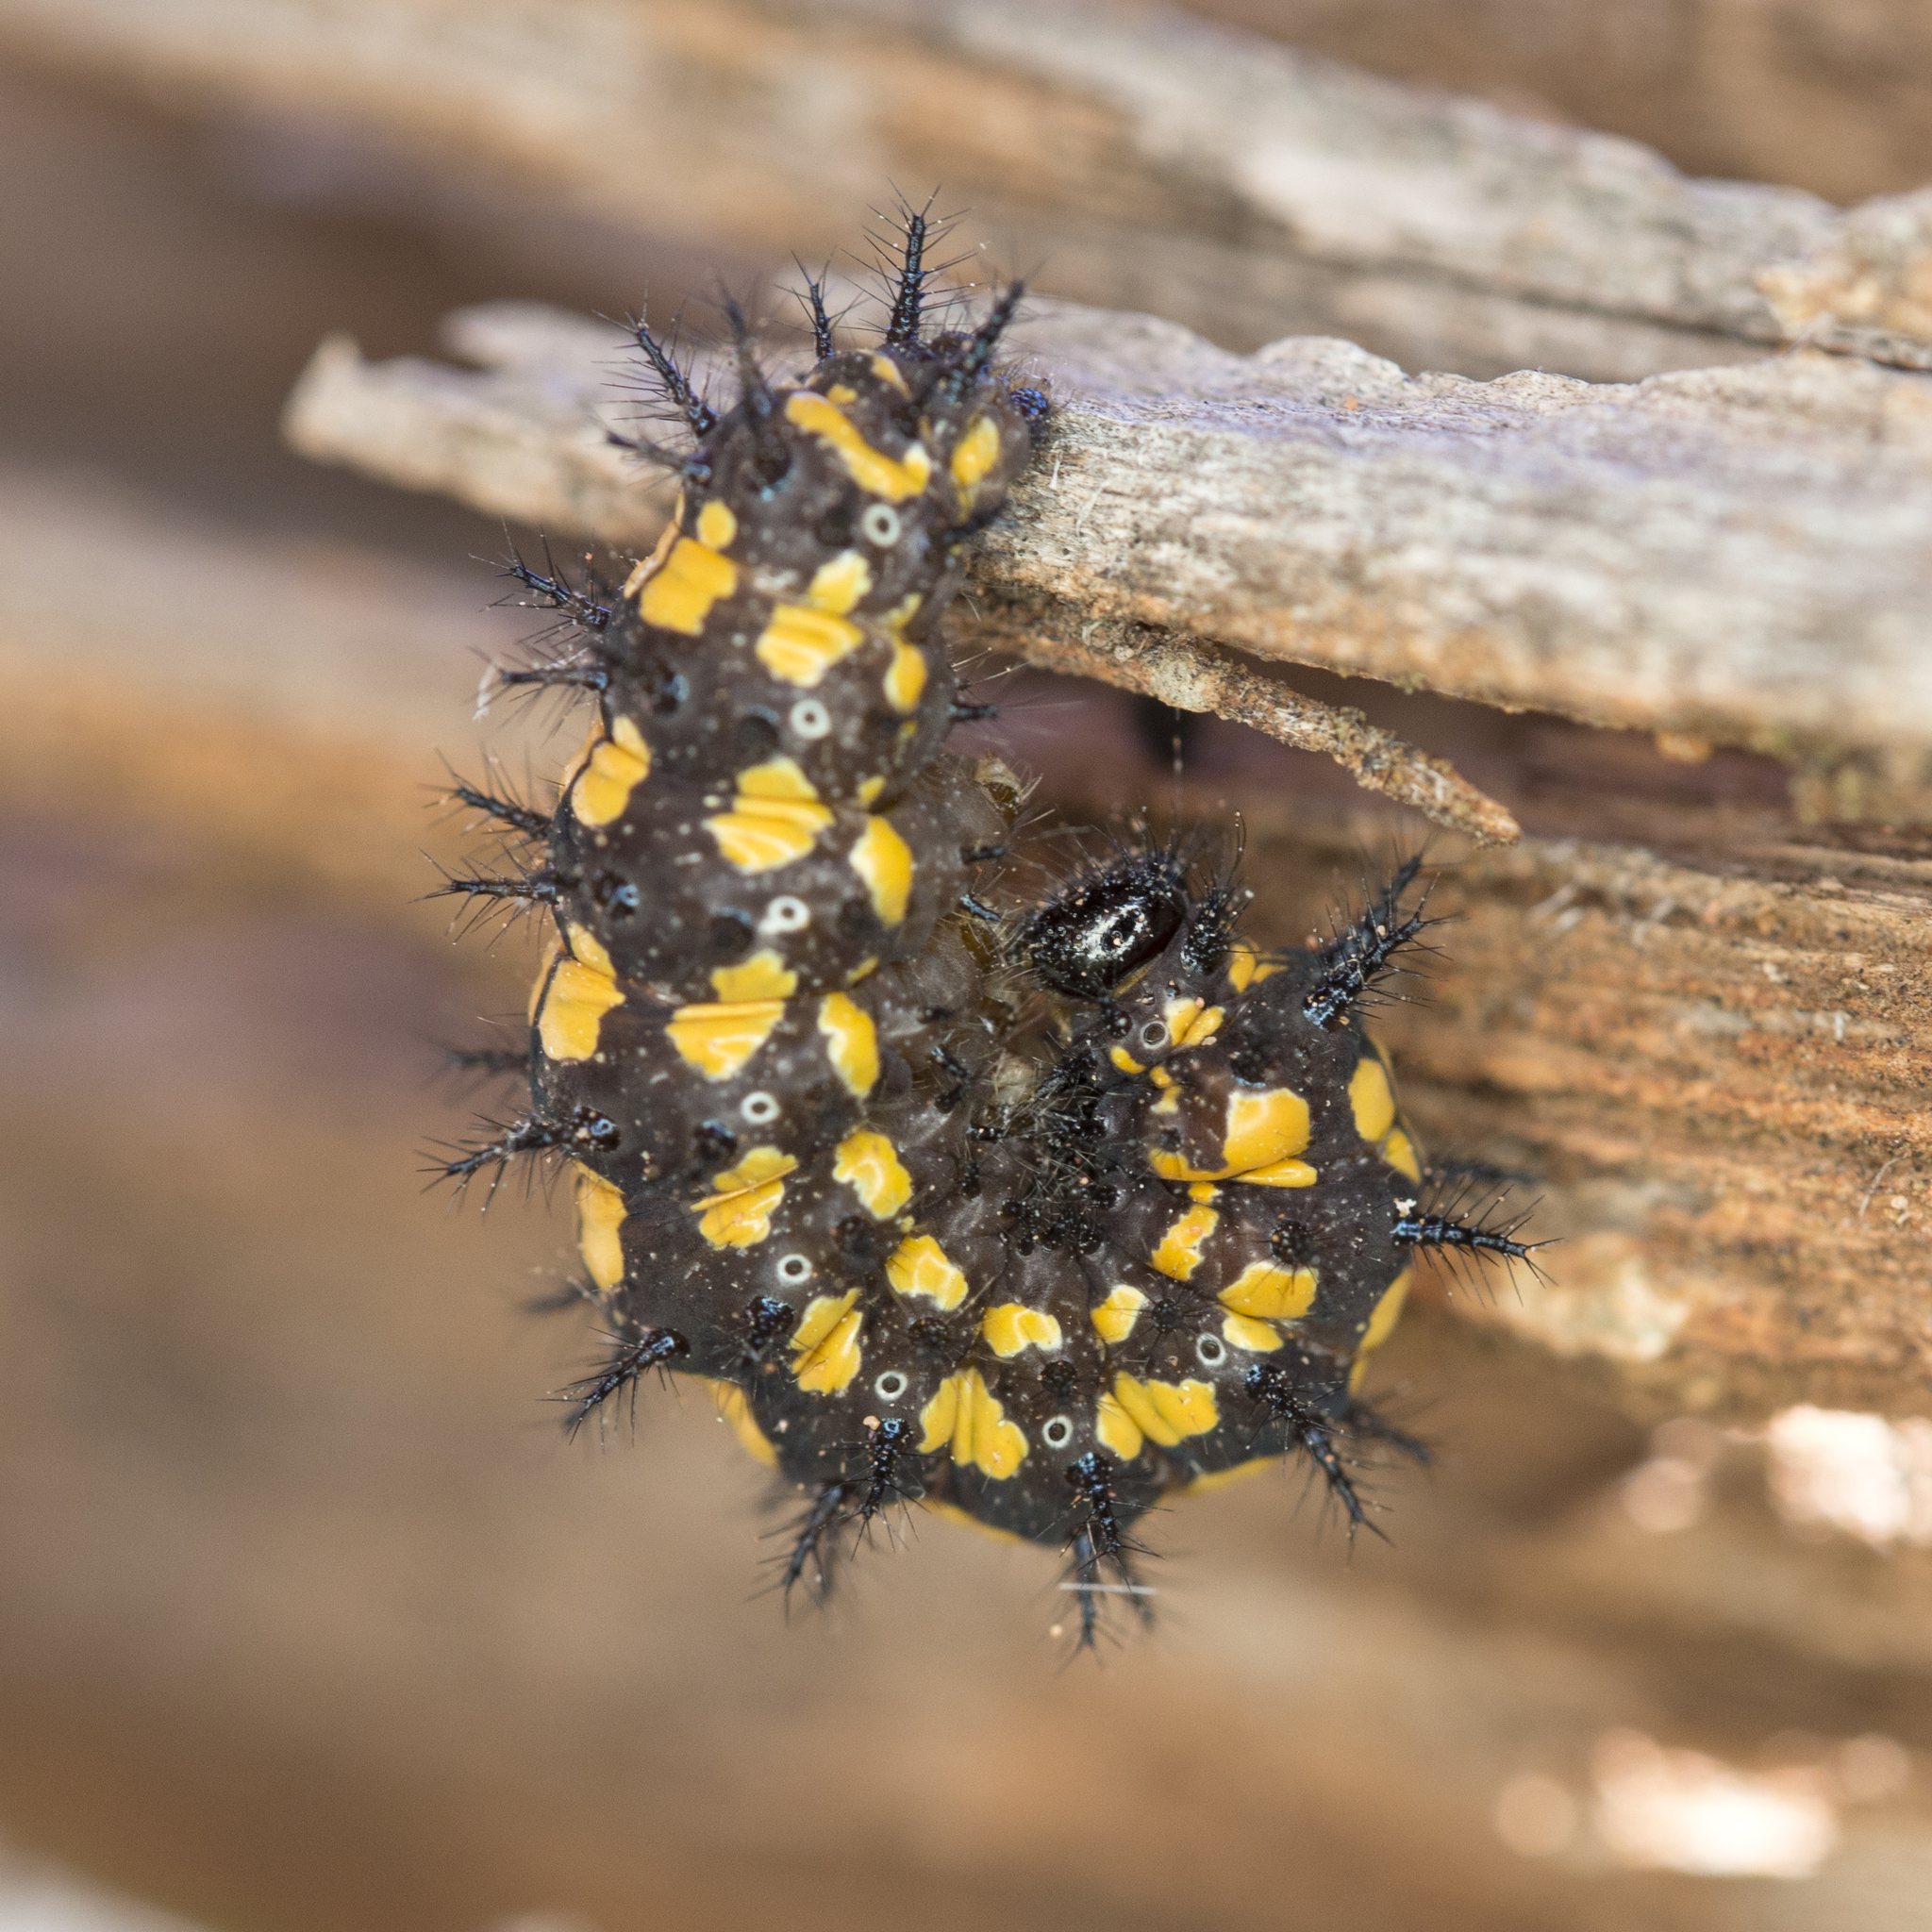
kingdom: Animalia
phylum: Arthropoda
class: Insecta
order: Lepidoptera
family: Nymphalidae
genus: Thessalia
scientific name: Thessalia leanira
